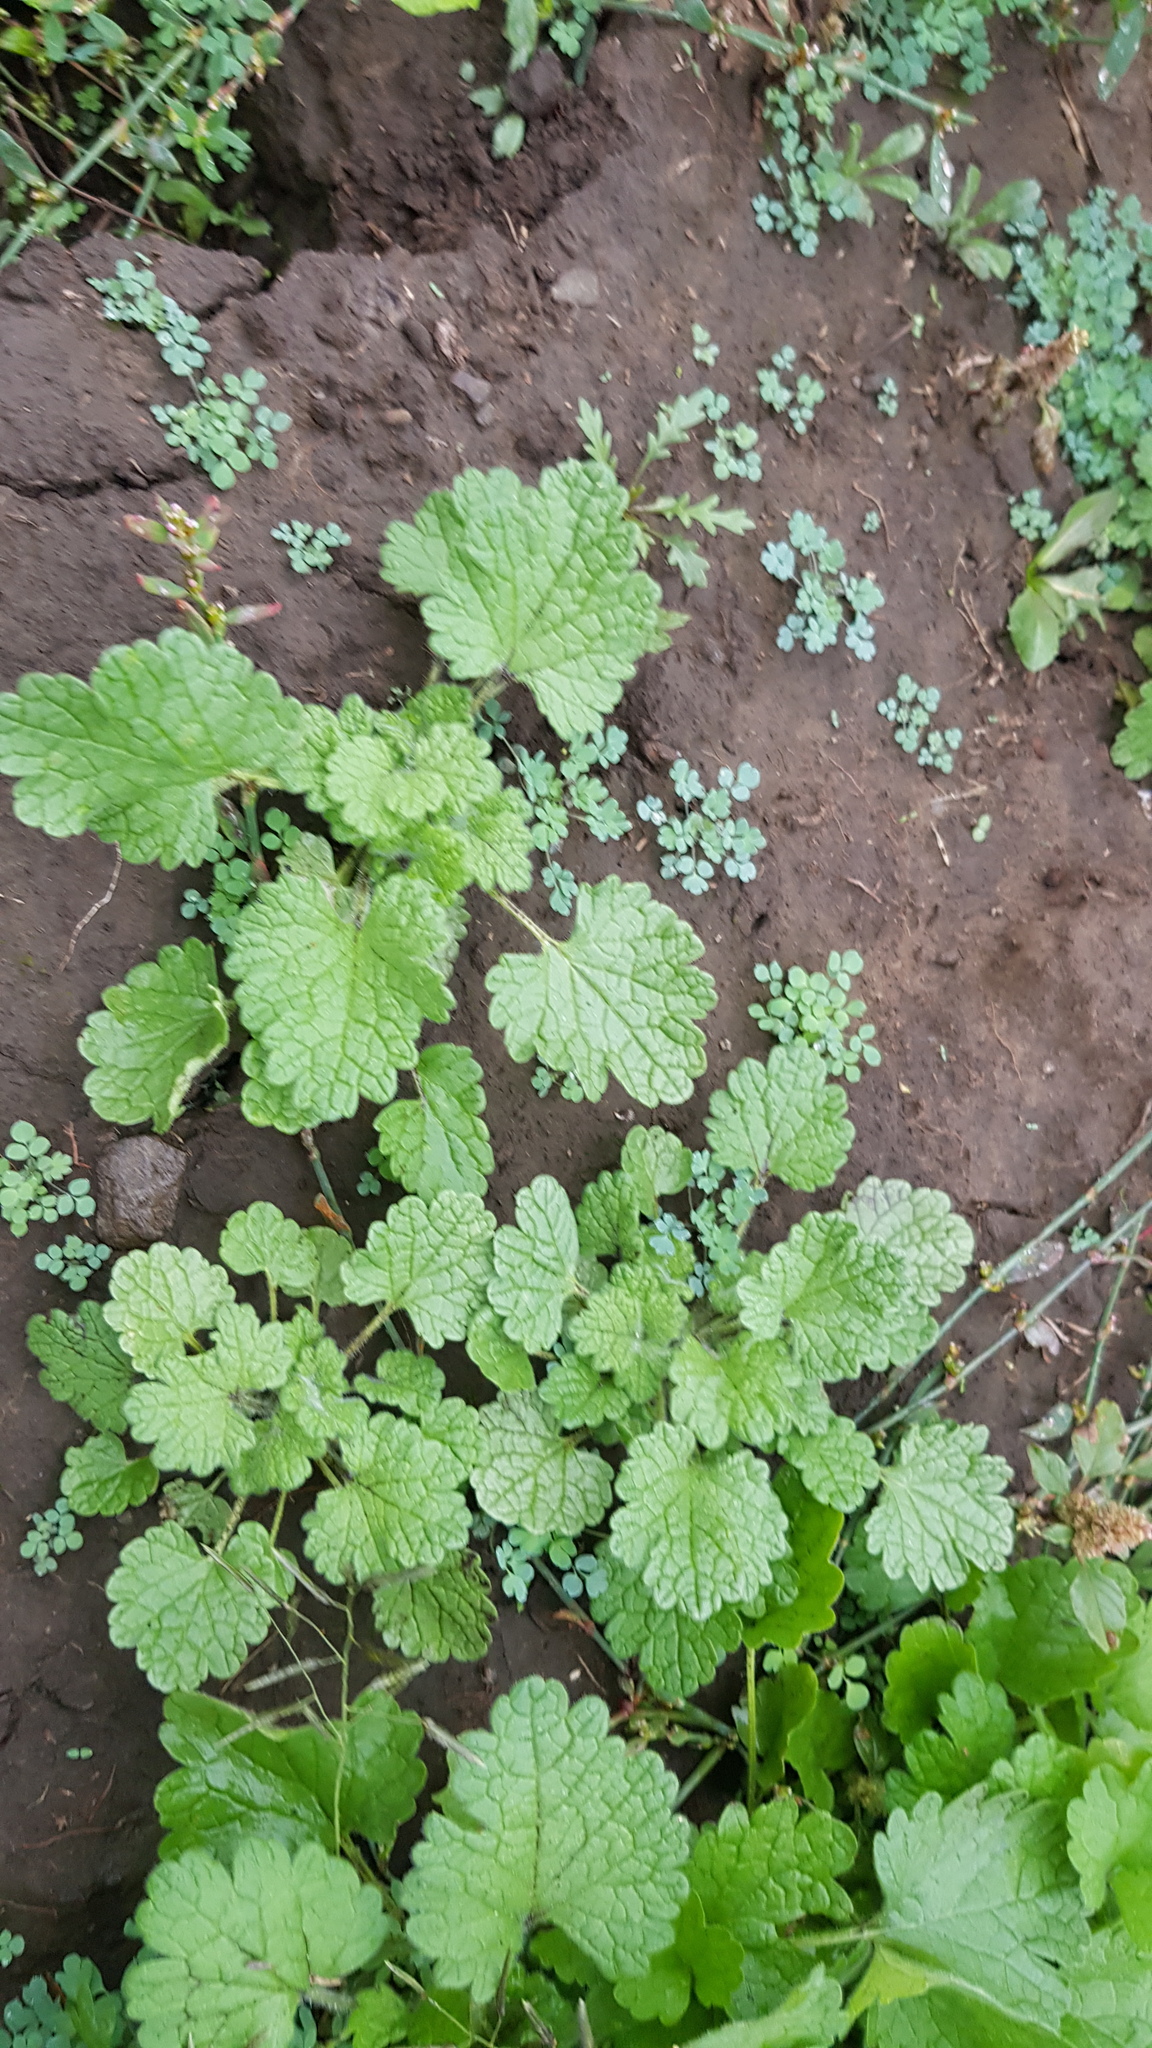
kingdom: Plantae
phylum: Tracheophyta
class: Magnoliopsida
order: Lamiales
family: Lamiaceae
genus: Lagopsis
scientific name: Lagopsis supina
